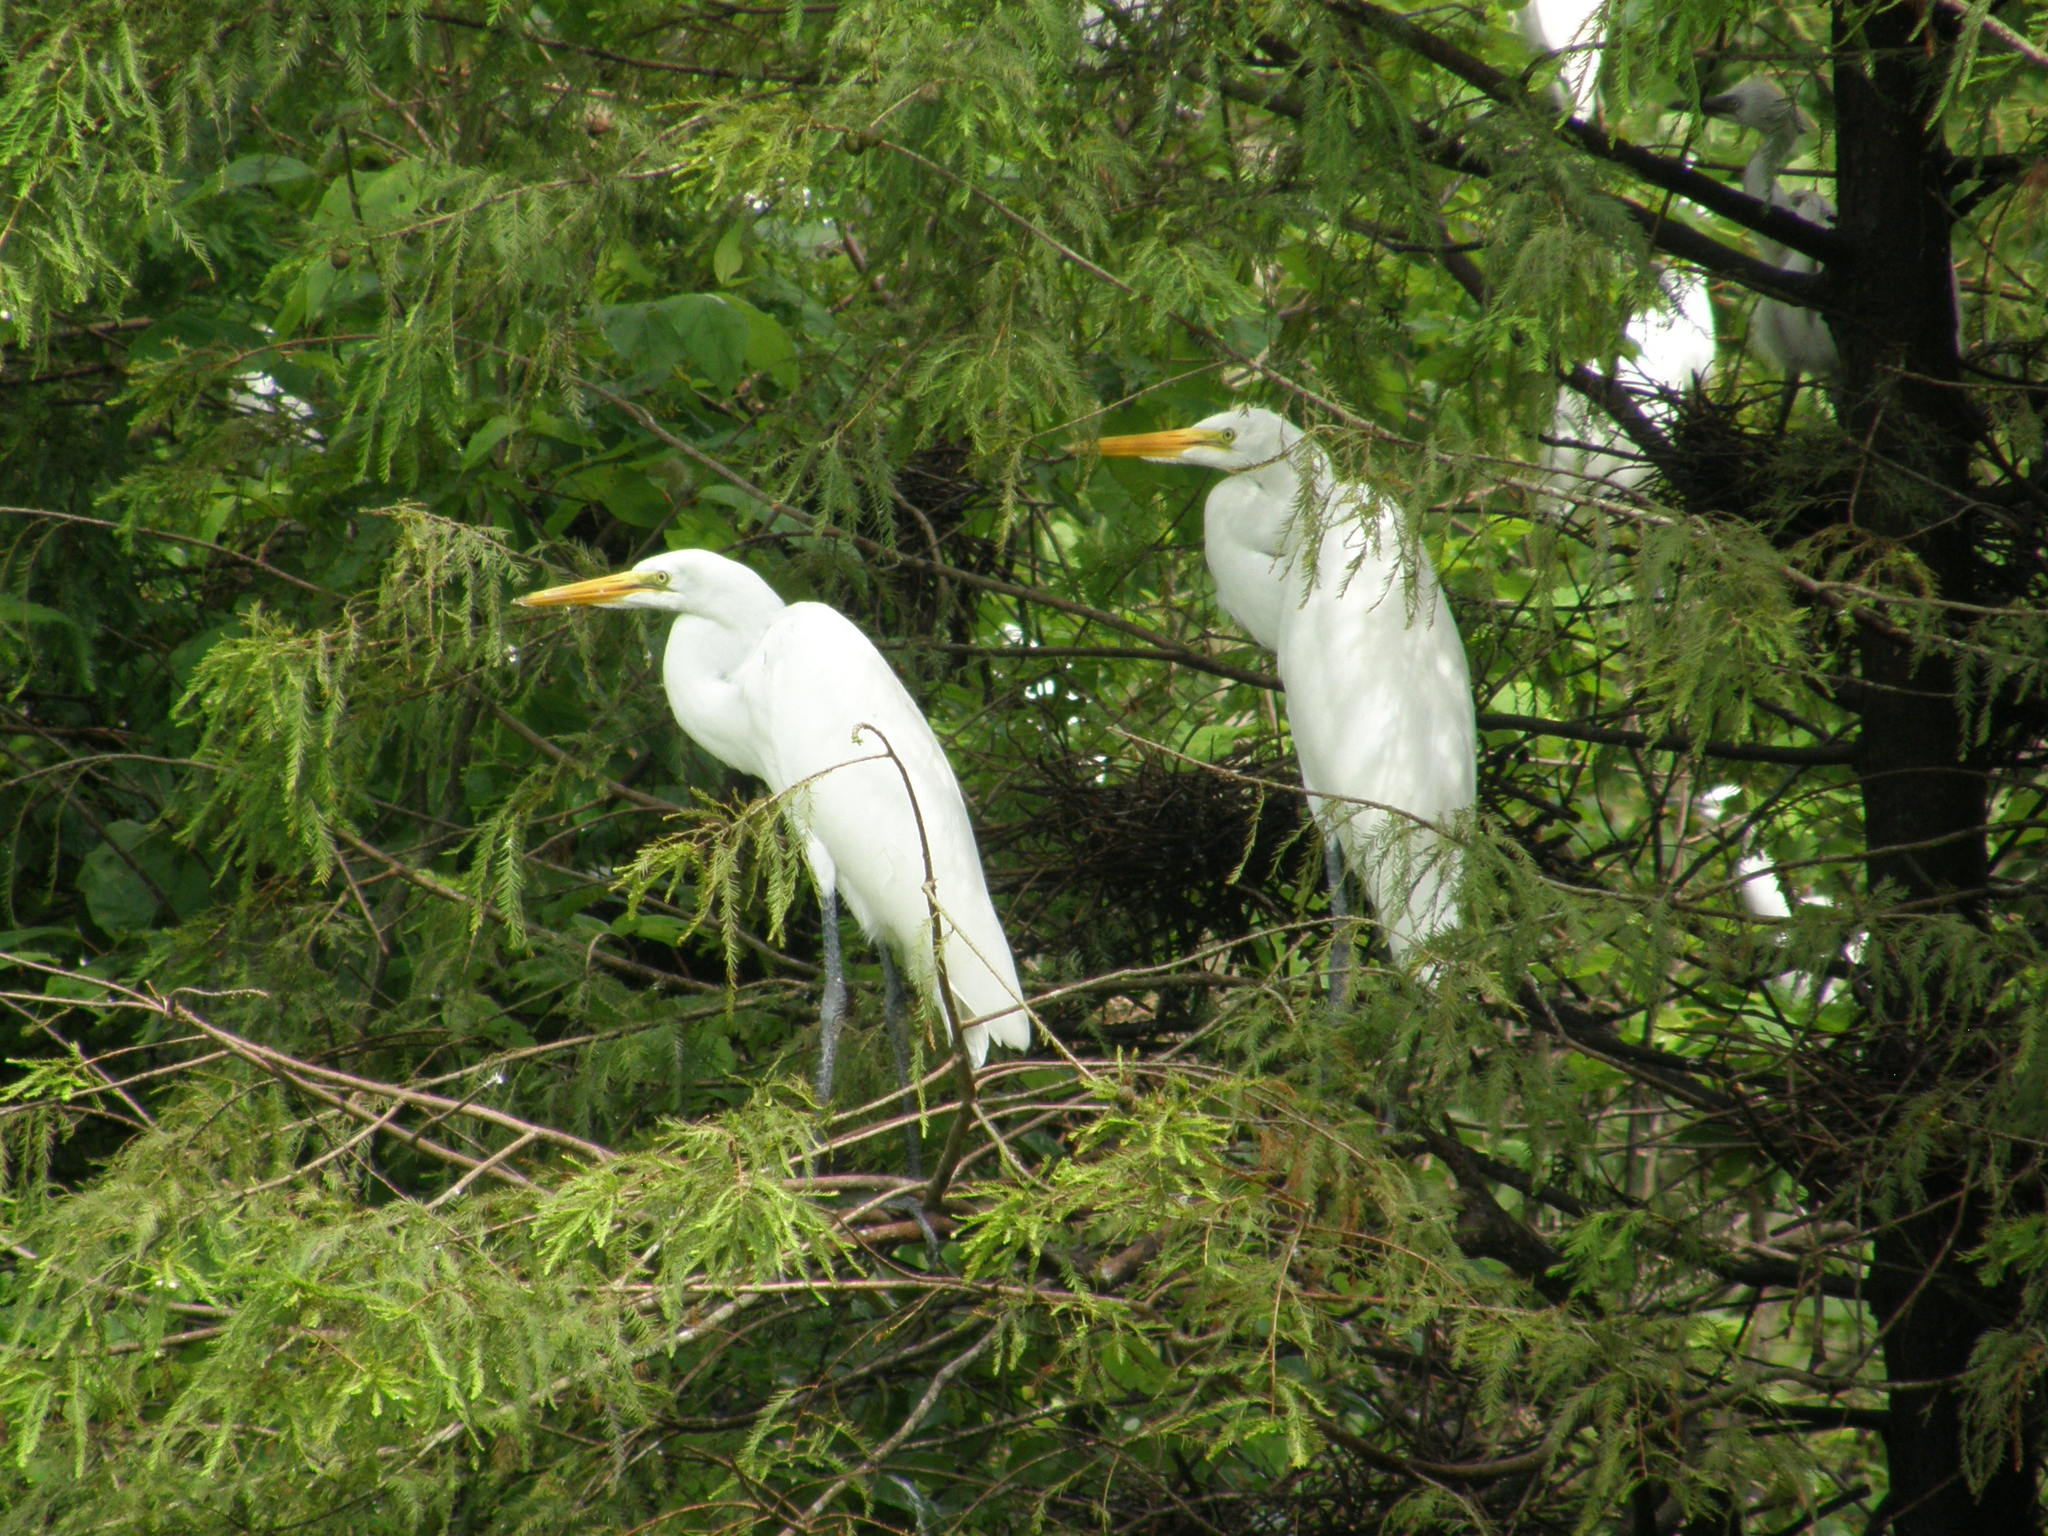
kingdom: Animalia
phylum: Chordata
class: Aves
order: Pelecaniformes
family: Ardeidae
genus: Ardea
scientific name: Ardea alba
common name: Great egret
